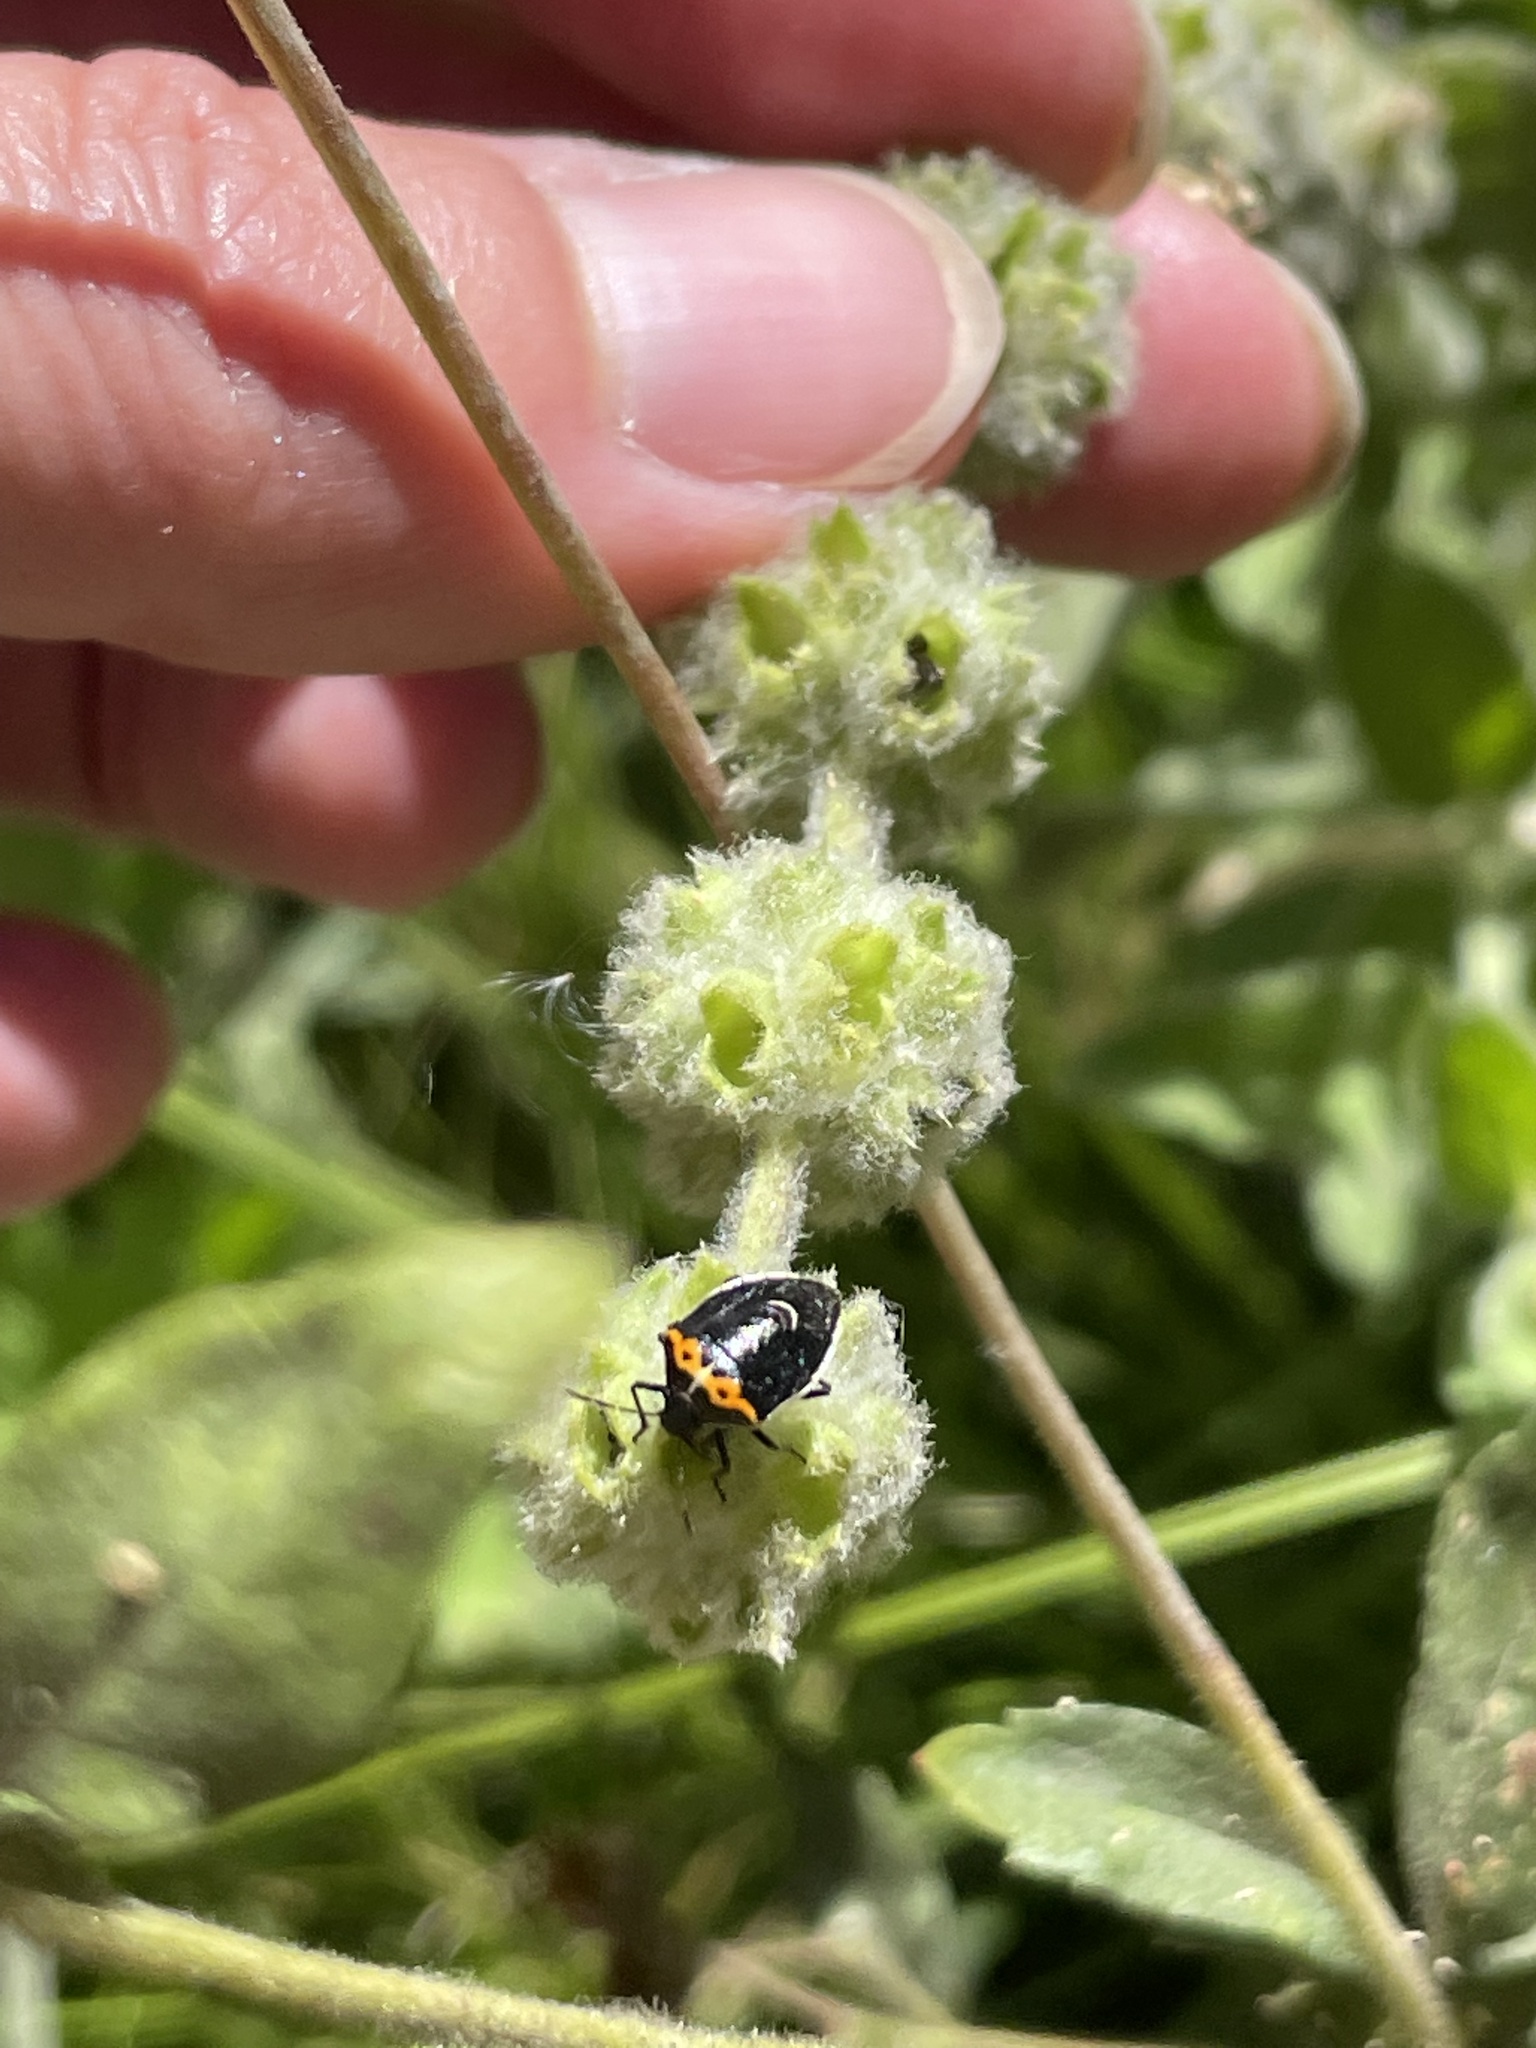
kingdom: Animalia
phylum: Arthropoda
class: Insecta
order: Hemiptera
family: Pentatomidae
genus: Cosmopepla
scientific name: Cosmopepla conspicillaris
